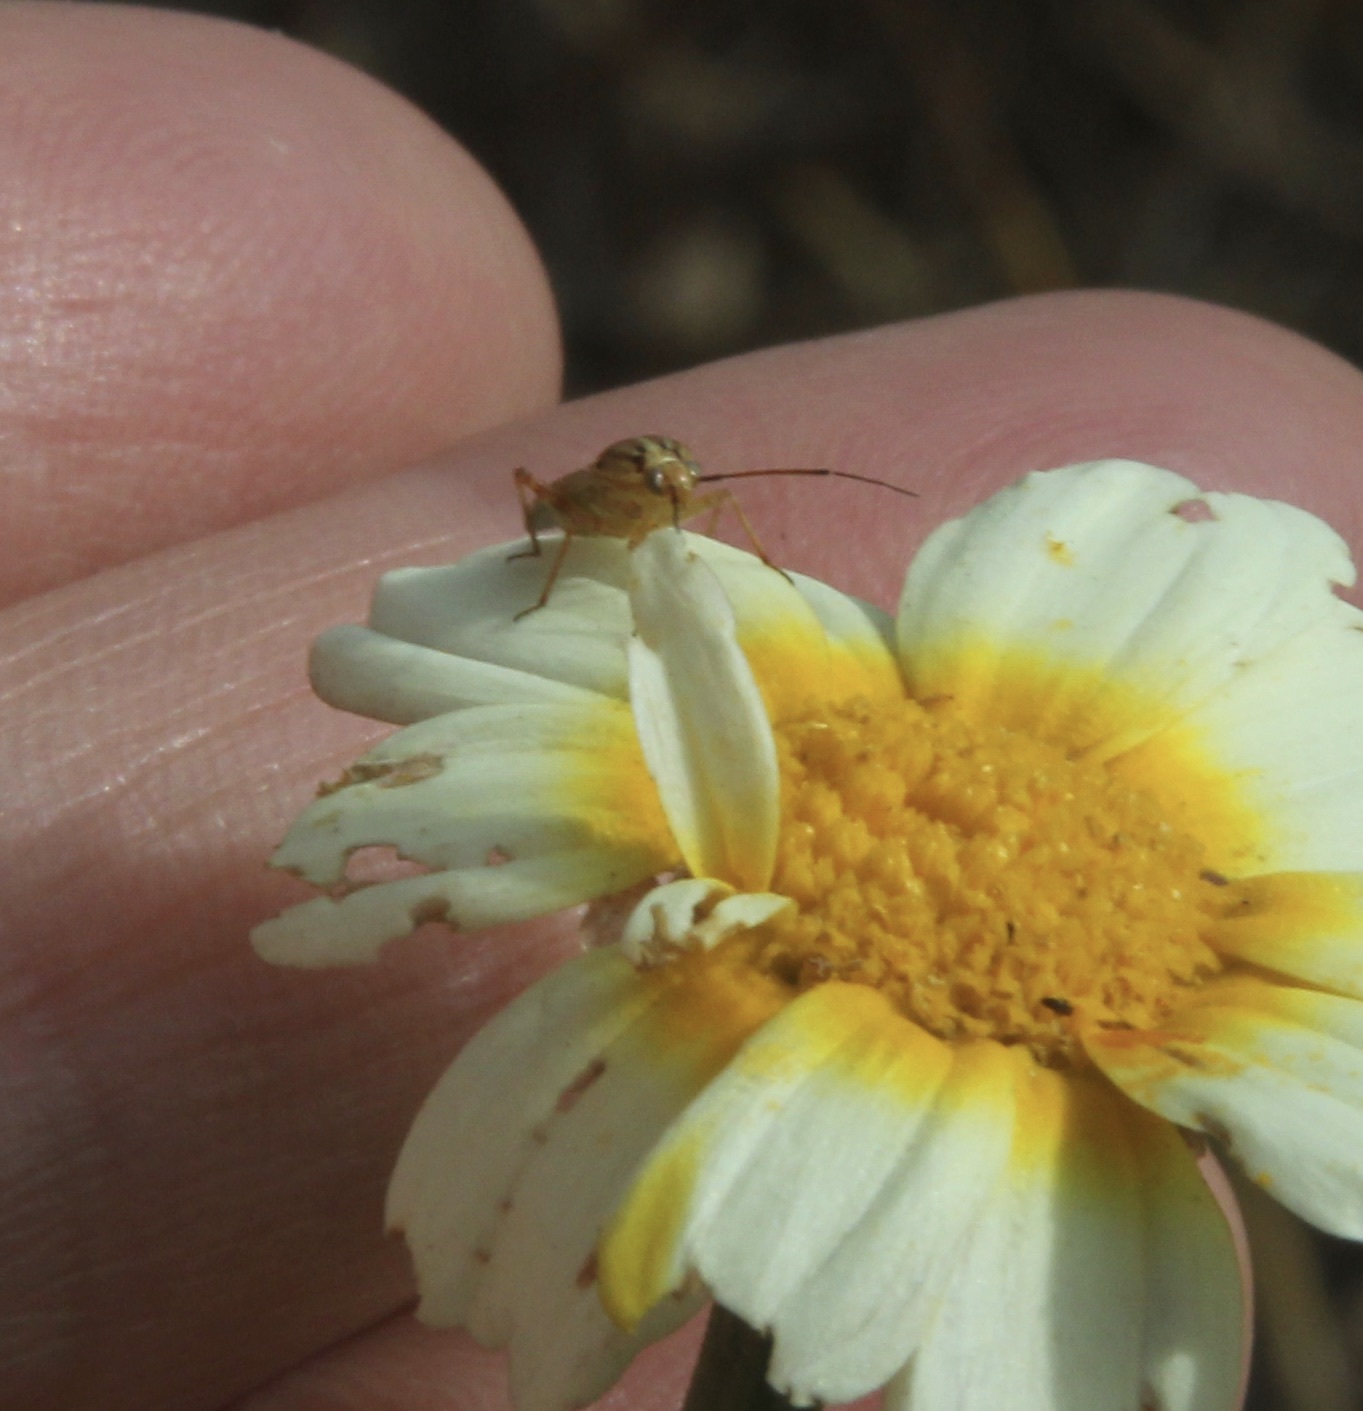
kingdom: Plantae
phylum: Tracheophyta
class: Magnoliopsida
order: Asterales
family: Asteraceae
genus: Glebionis
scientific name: Glebionis coronaria
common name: Crowndaisy
